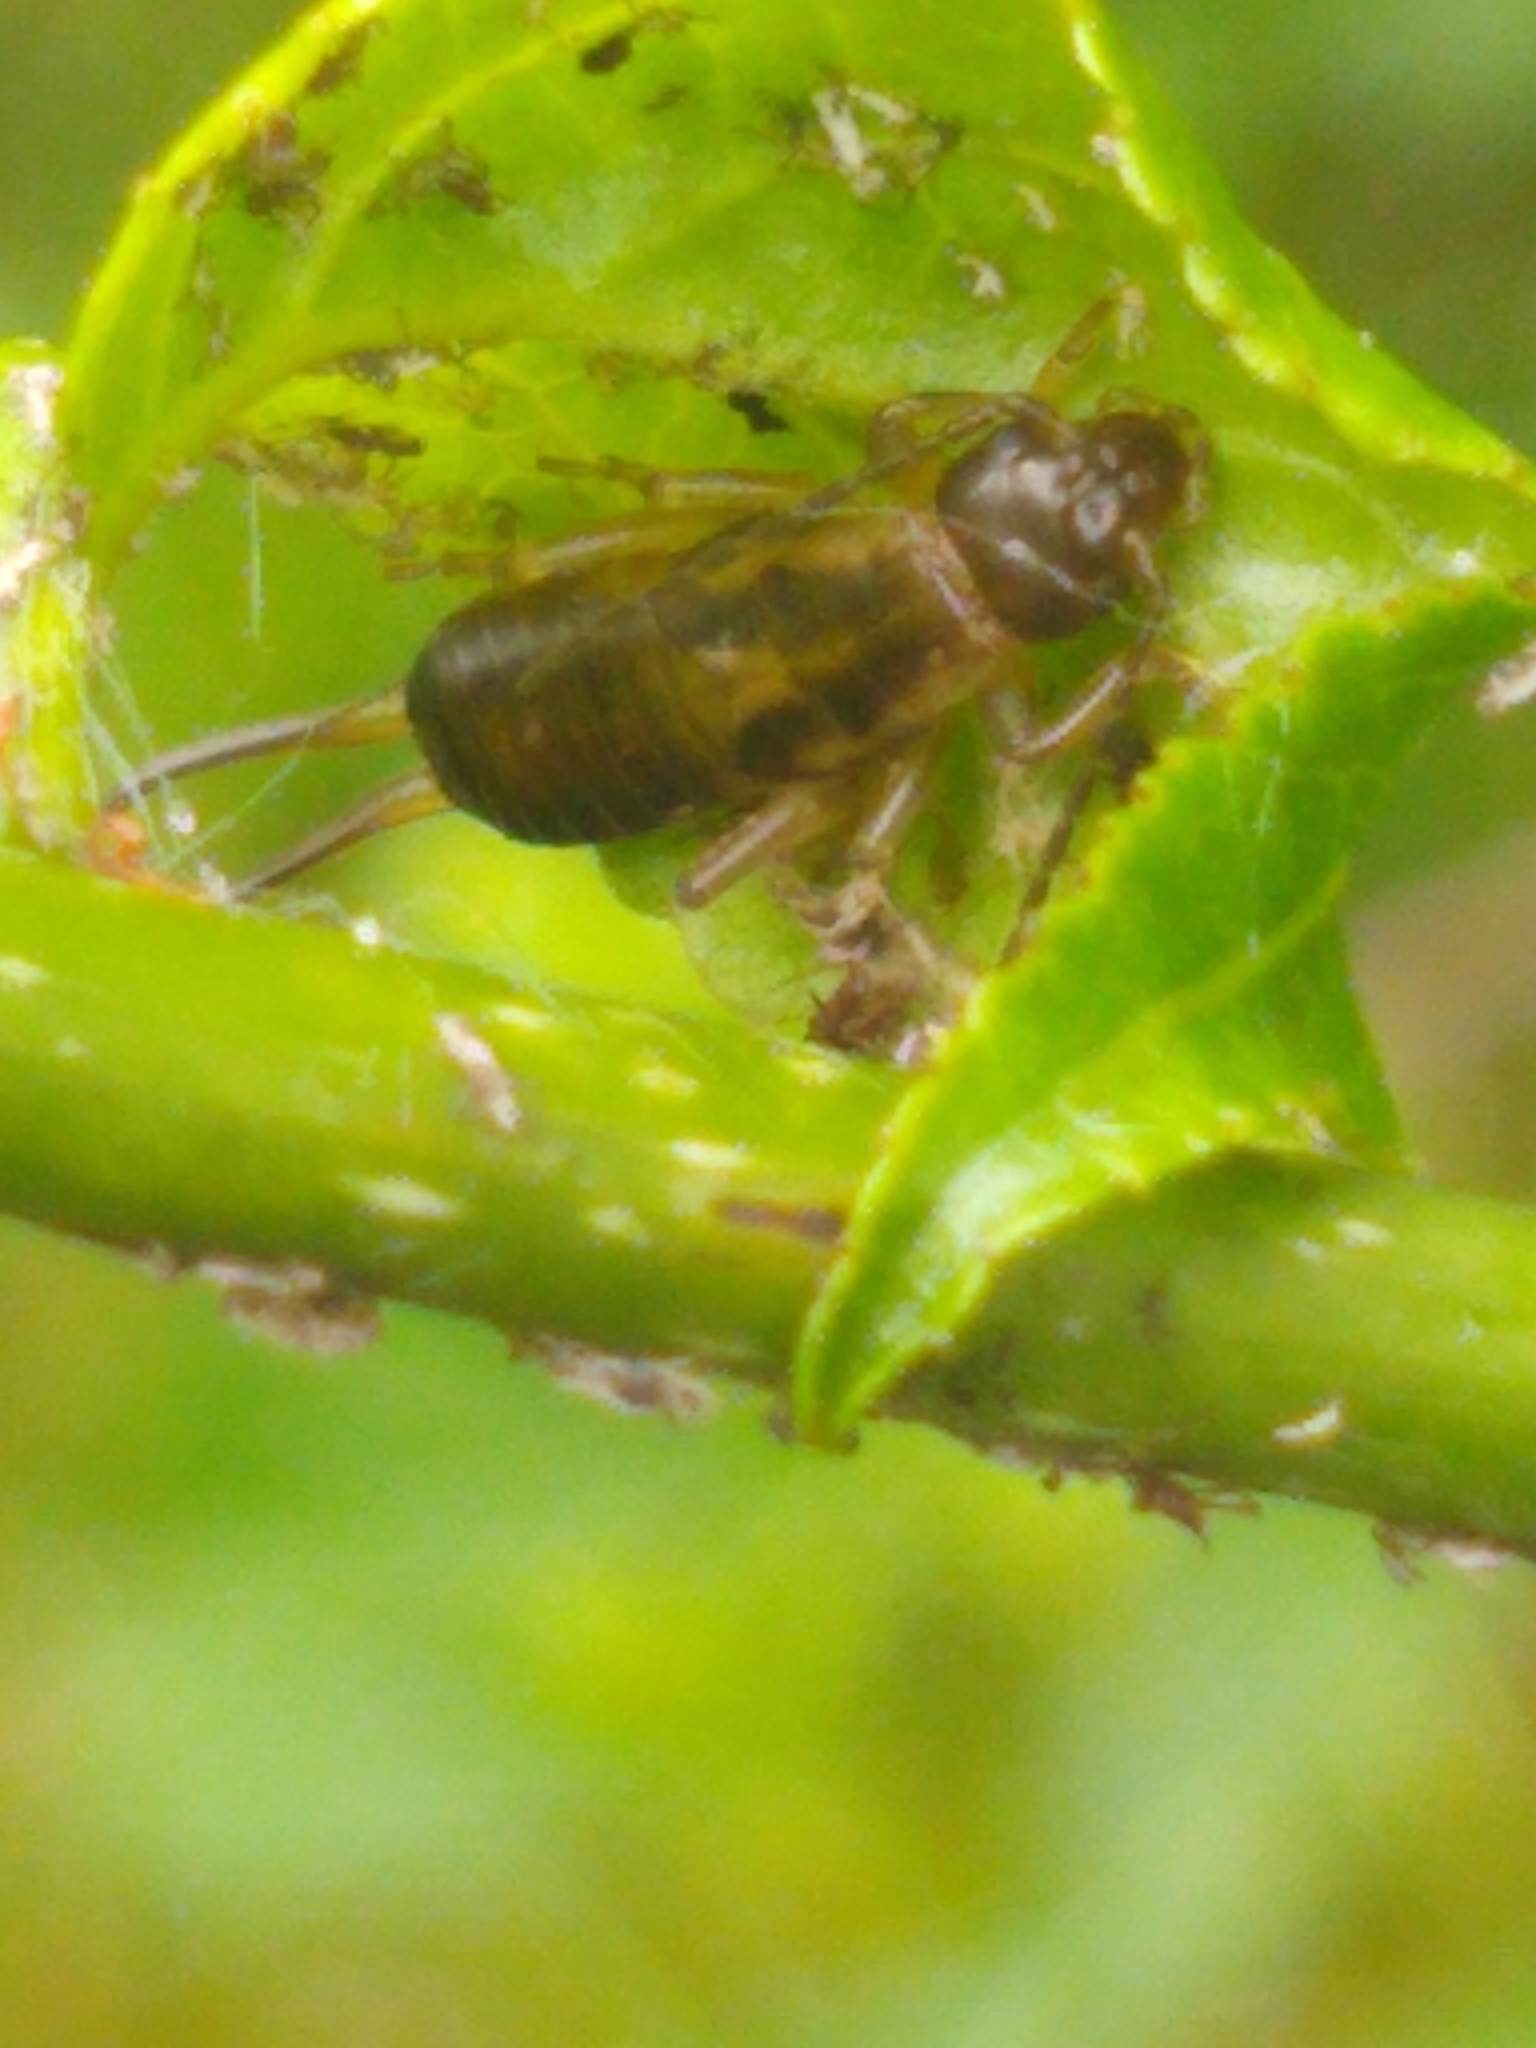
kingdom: Animalia
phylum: Arthropoda
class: Insecta
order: Dermaptera
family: Forficulidae
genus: Forficula
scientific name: Forficula
